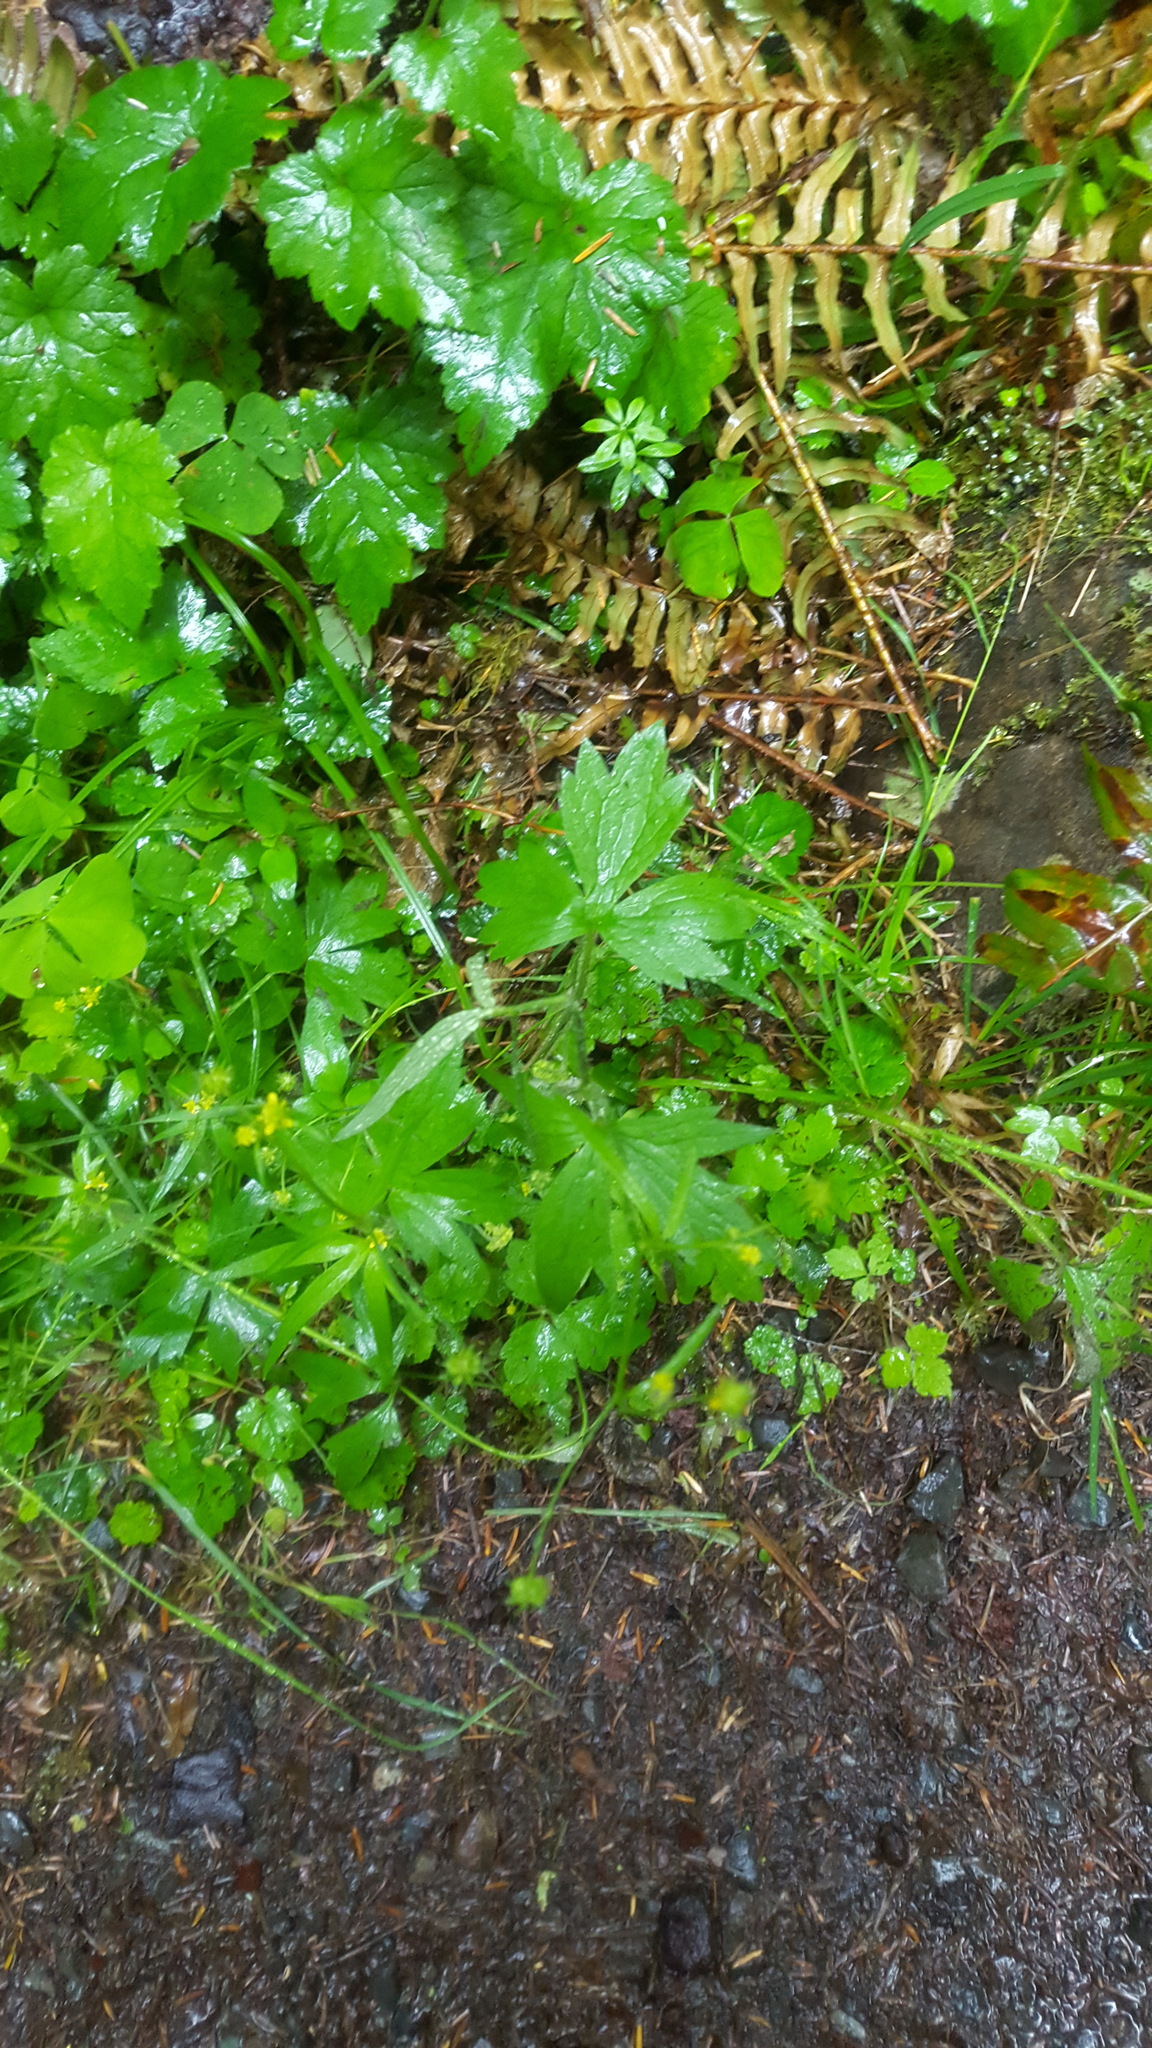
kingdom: Plantae
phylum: Tracheophyta
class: Magnoliopsida
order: Ranunculales
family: Ranunculaceae
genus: Ranunculus
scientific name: Ranunculus uncinatus
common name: Little buttercup
